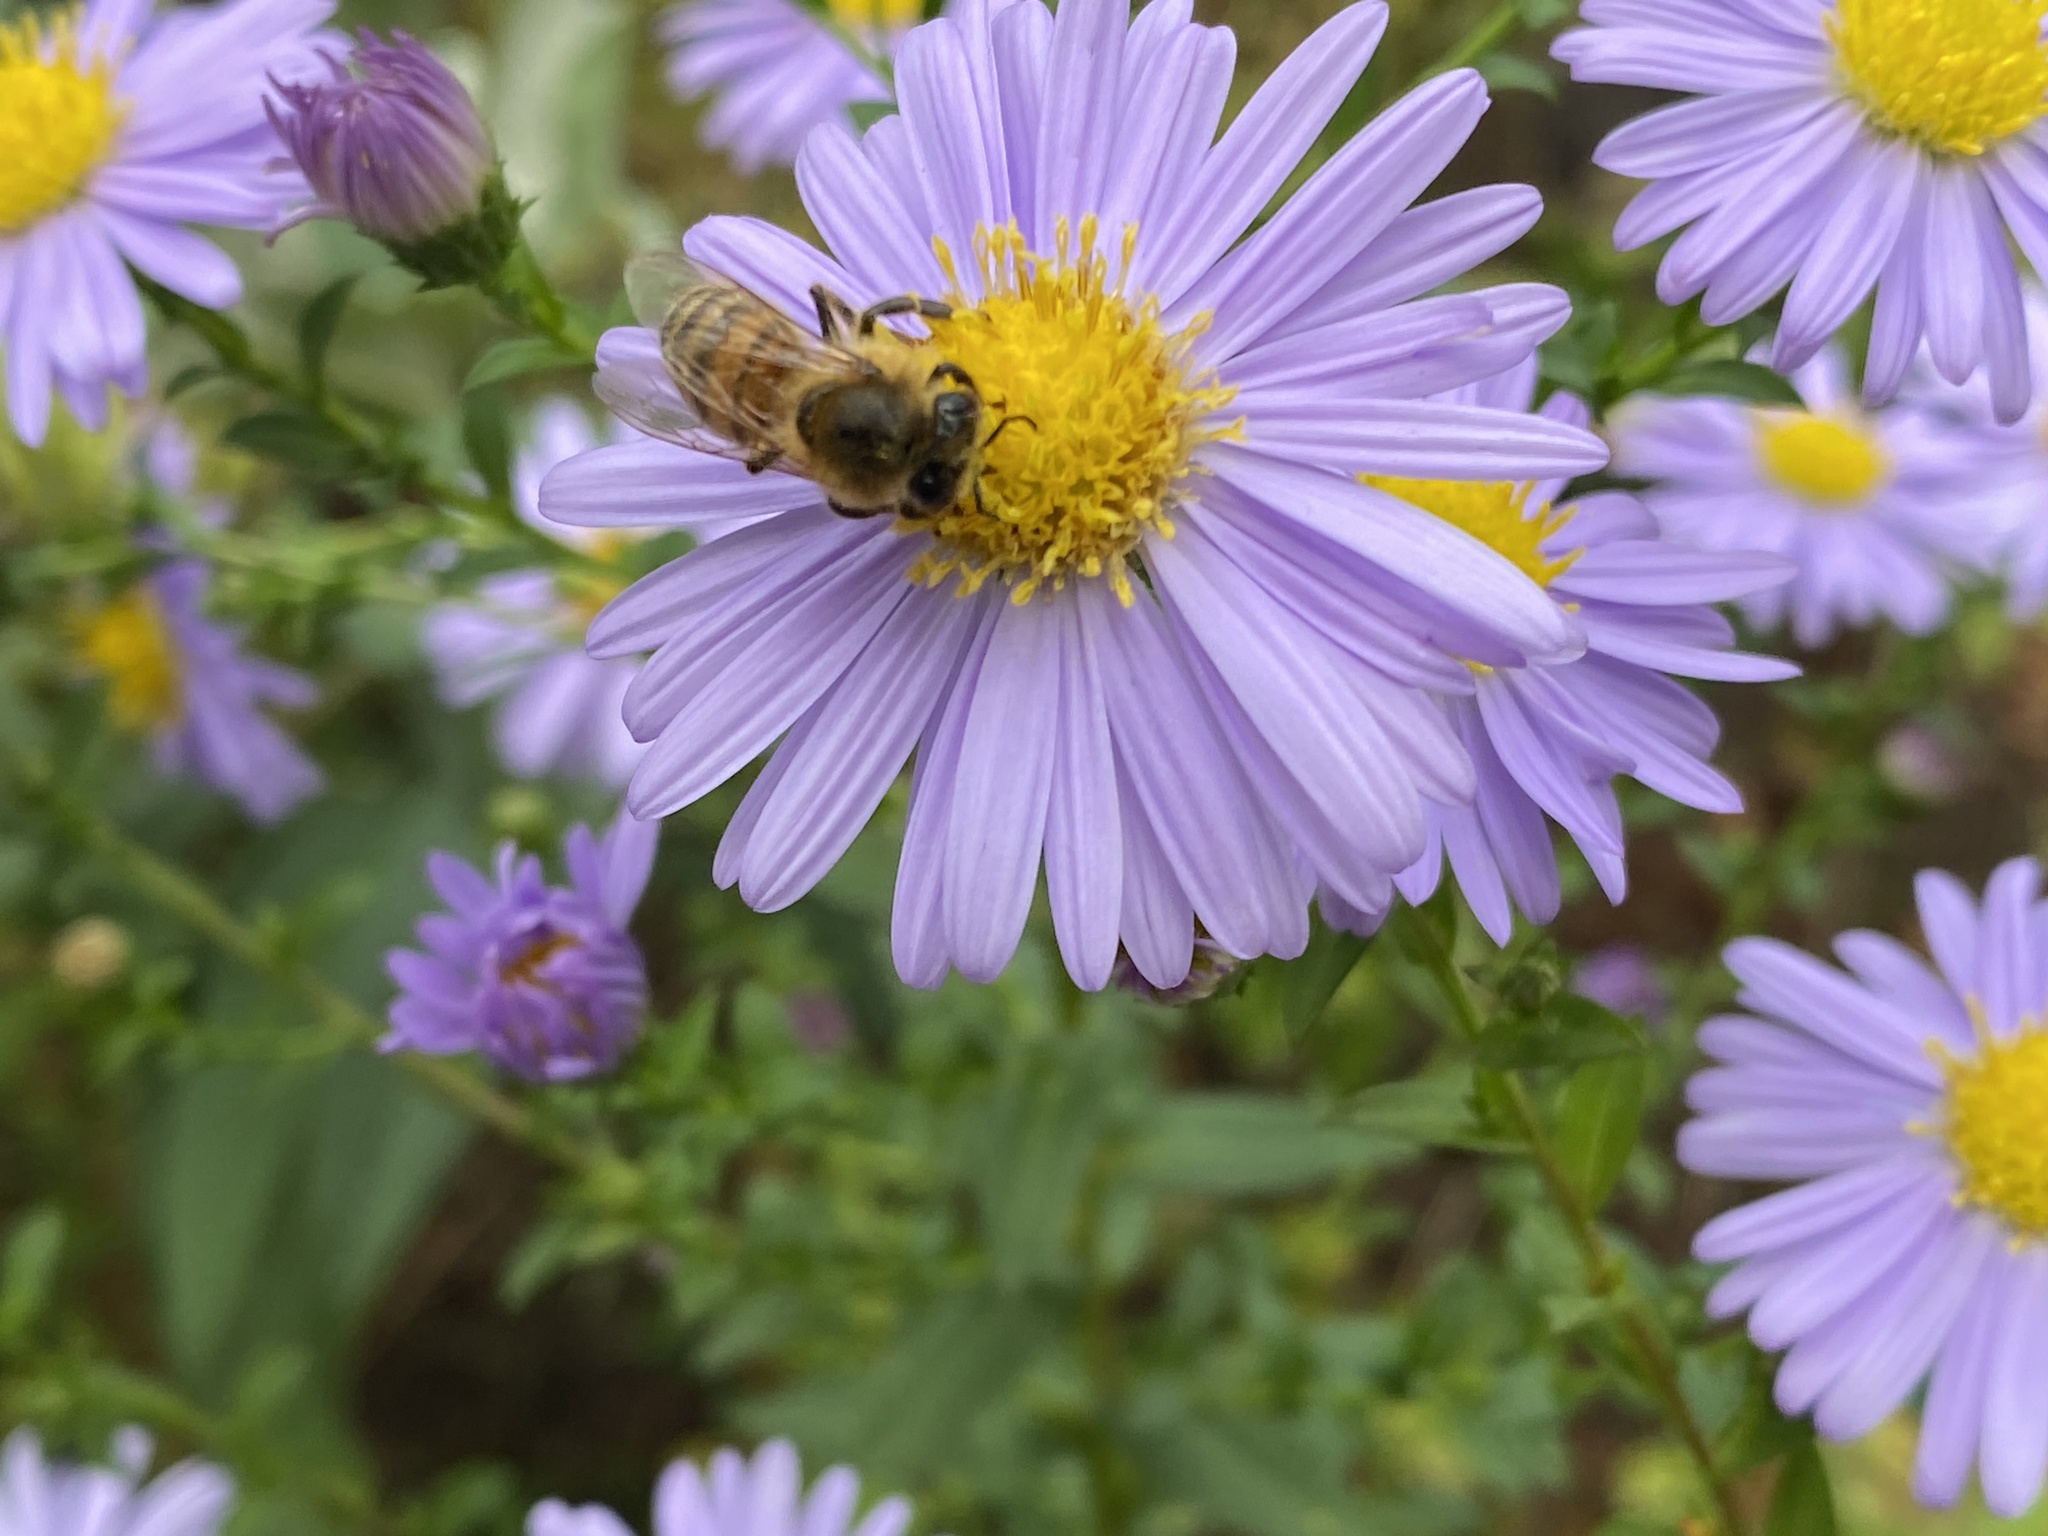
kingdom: Animalia
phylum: Arthropoda
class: Insecta
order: Hymenoptera
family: Apidae
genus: Apis
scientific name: Apis mellifera
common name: Honey bee
